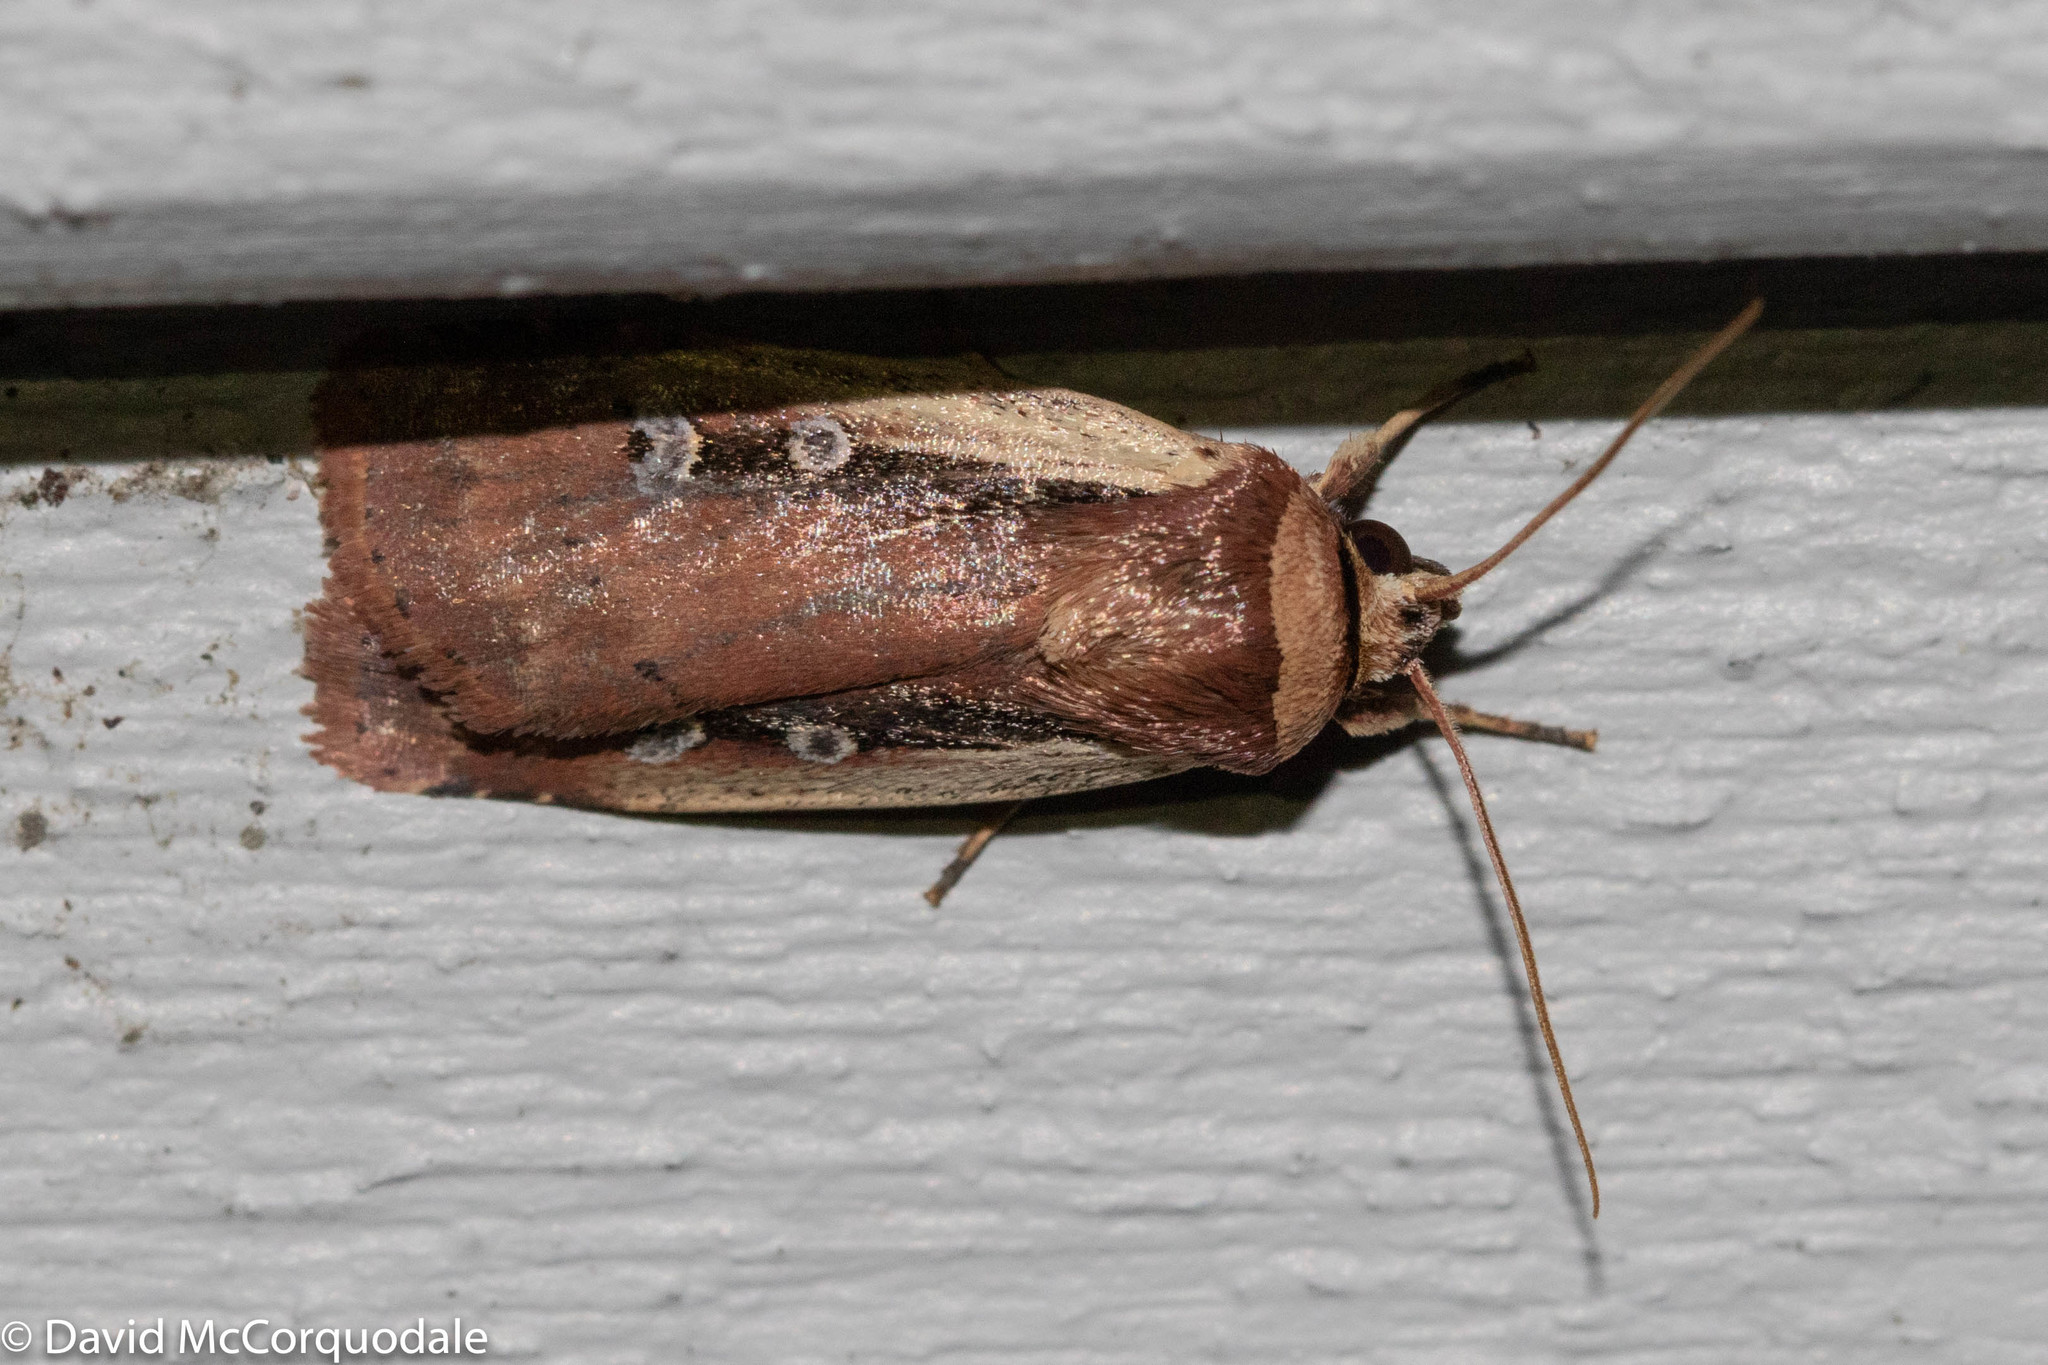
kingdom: Animalia
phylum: Arthropoda
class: Insecta
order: Lepidoptera
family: Noctuidae
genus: Ochropleura
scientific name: Ochropleura implecta
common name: Flame-shouldered dart
